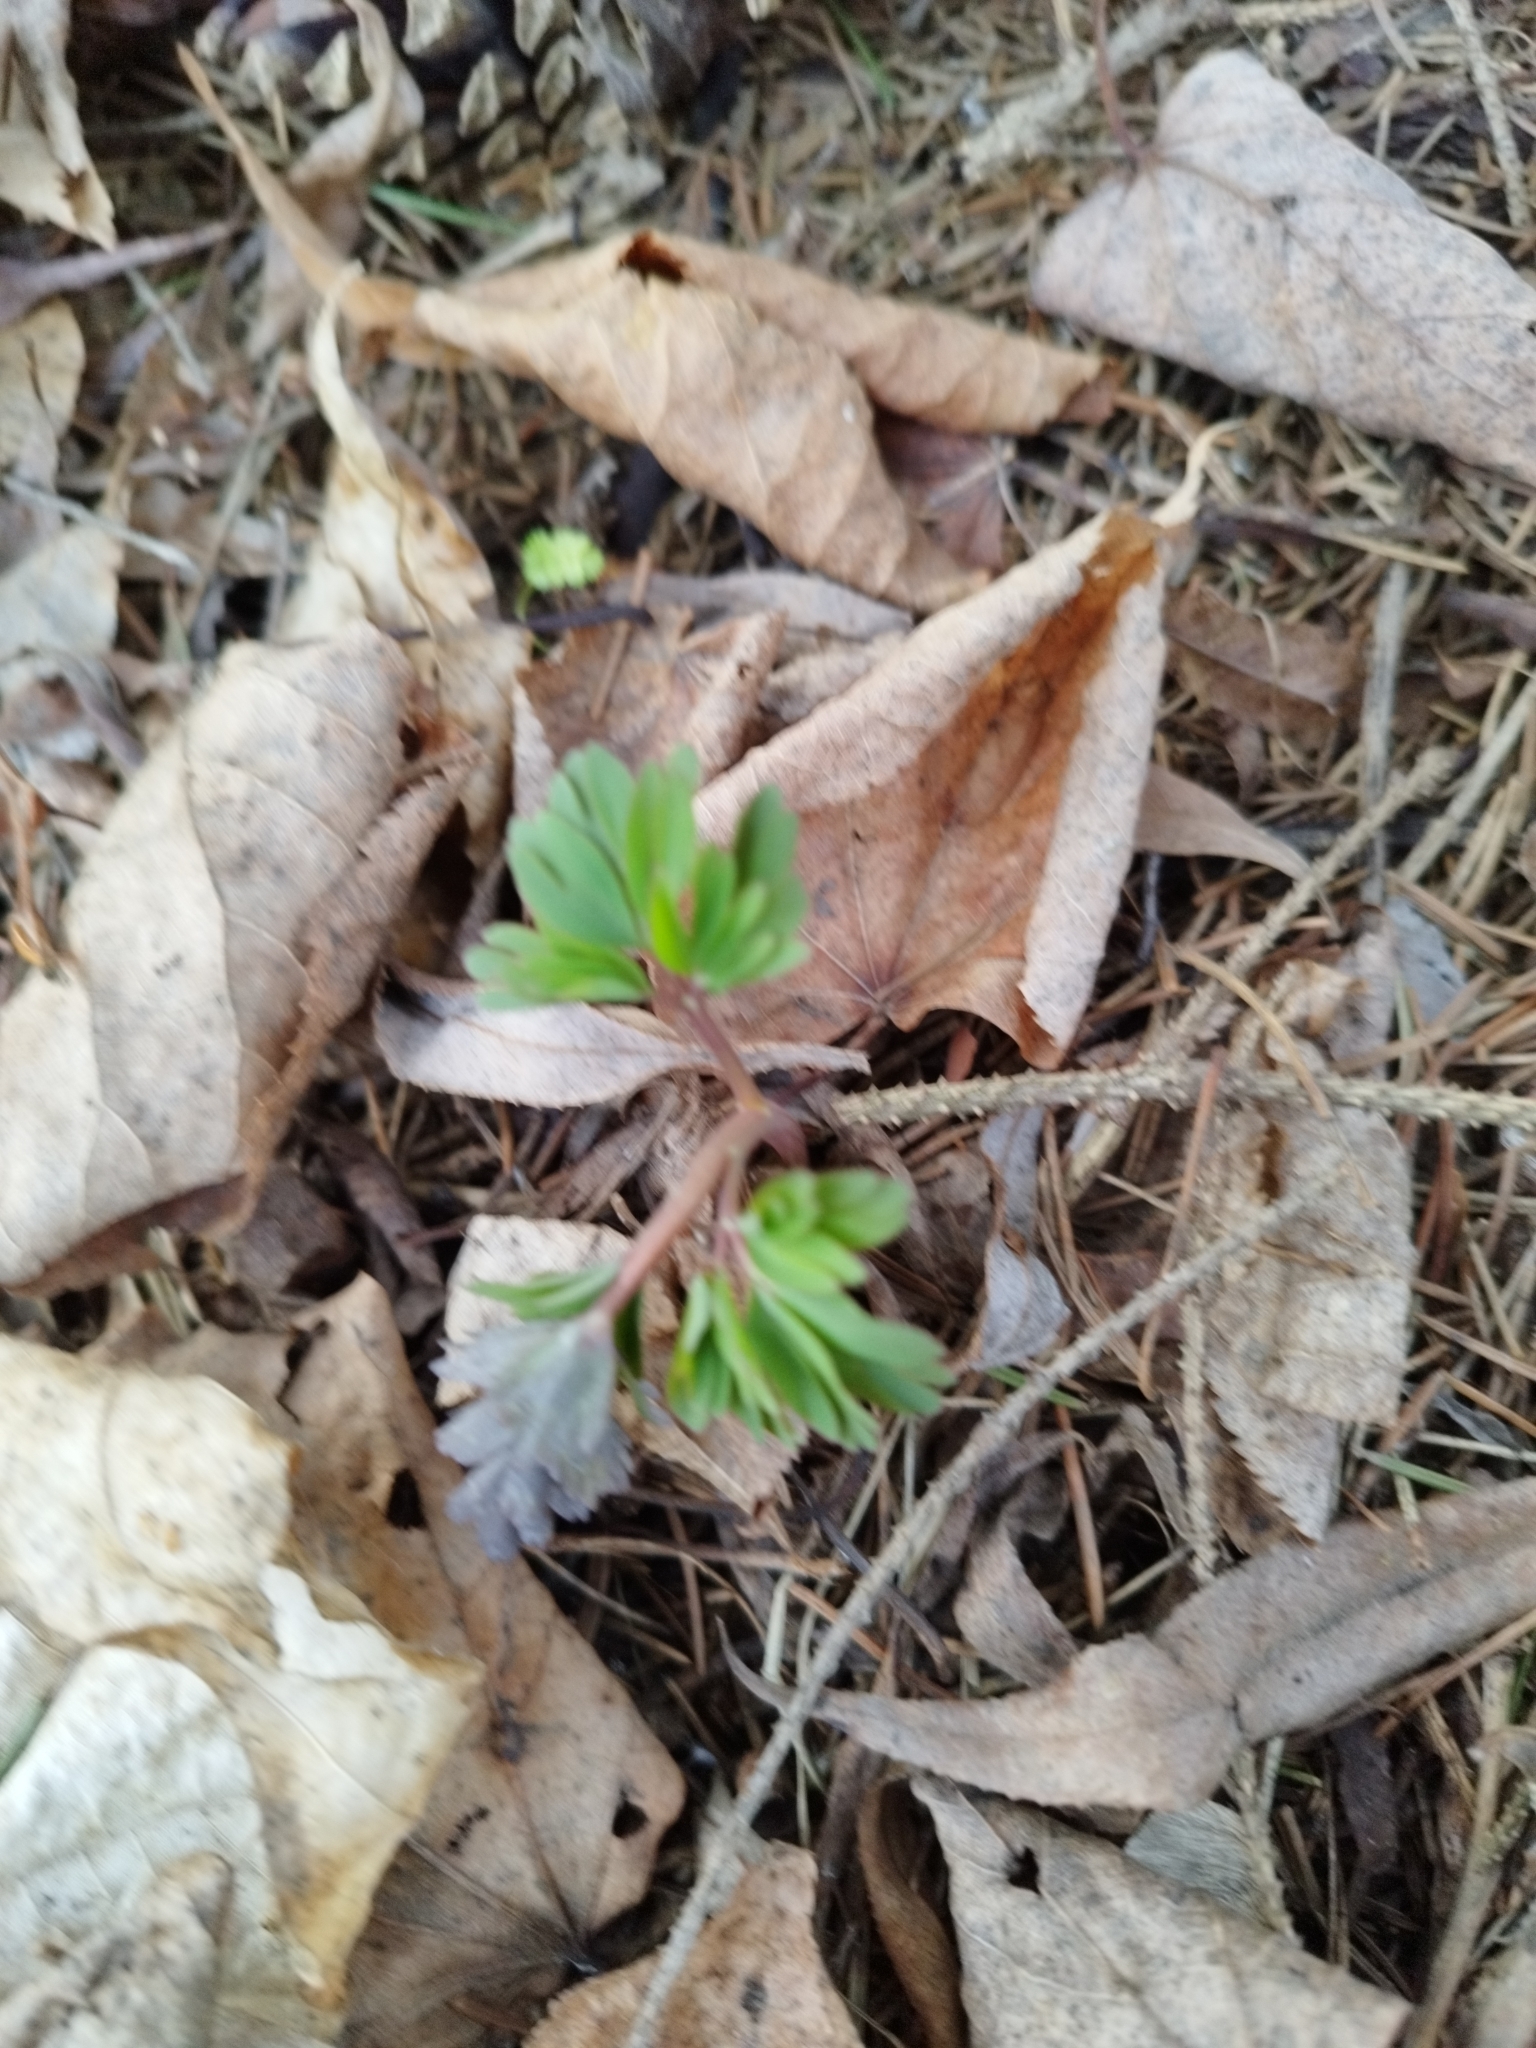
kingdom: Plantae
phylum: Tracheophyta
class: Magnoliopsida
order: Ranunculales
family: Papaveraceae
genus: Corydalis
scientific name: Corydalis solida
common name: Bird-in-a-bush
